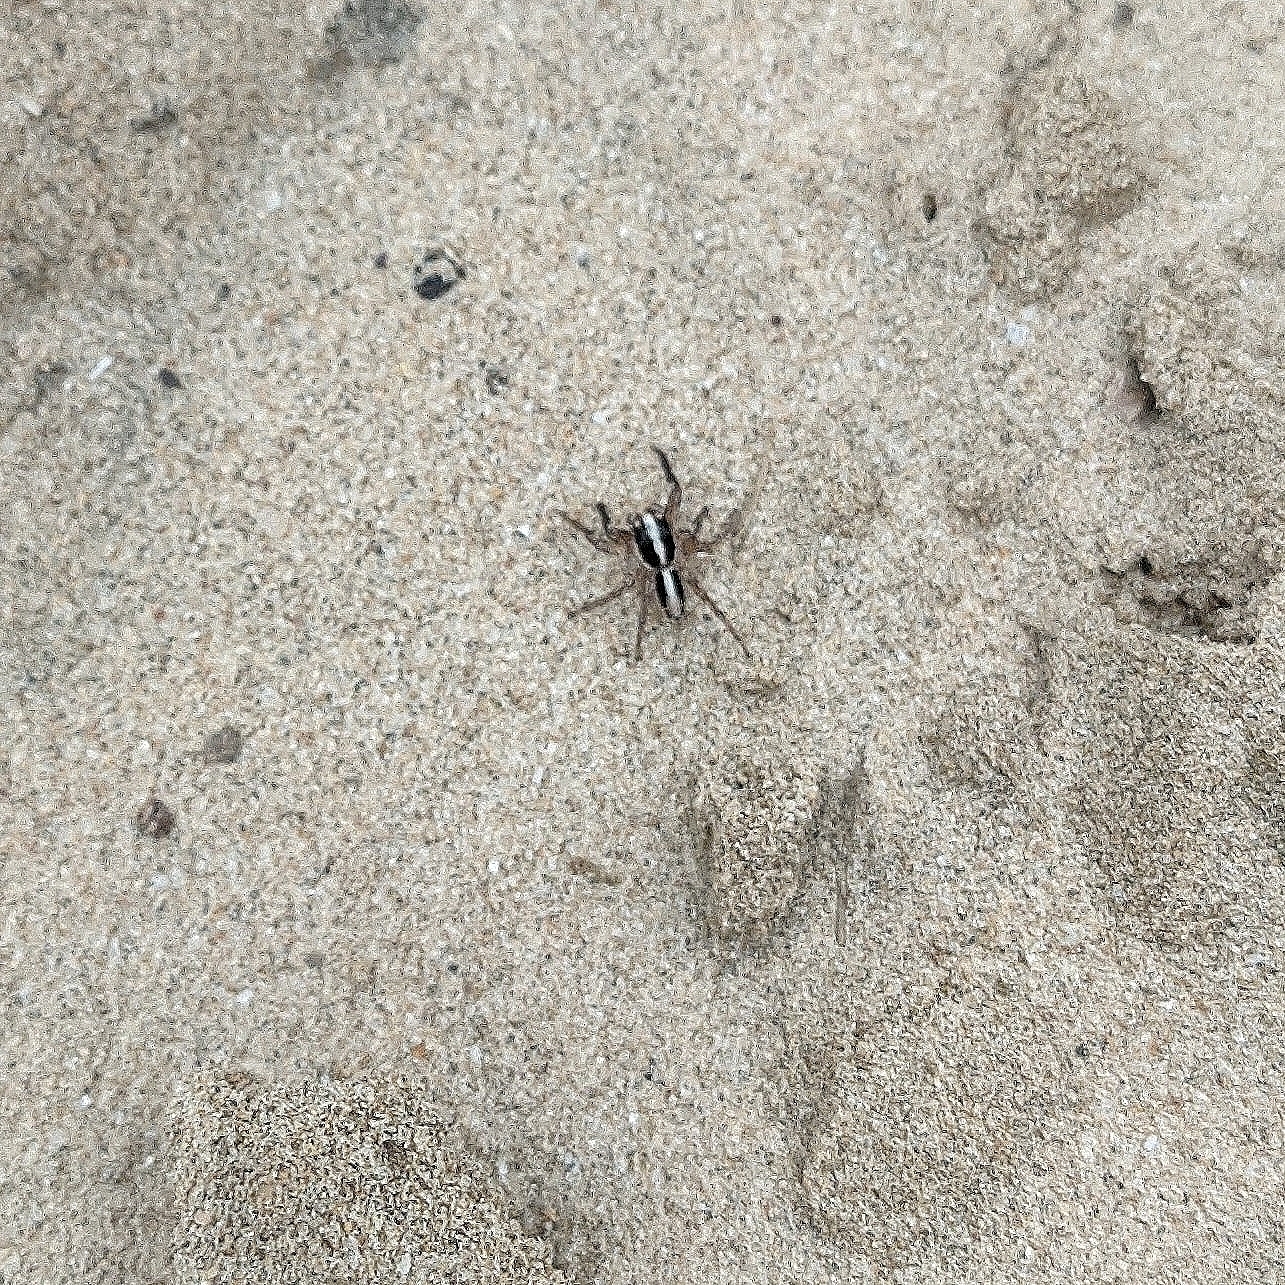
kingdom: Animalia
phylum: Arthropoda
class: Arachnida
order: Araneae
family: Salticidae
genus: Plexippus
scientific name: Plexippus paykulli
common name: Pantropical jumper
